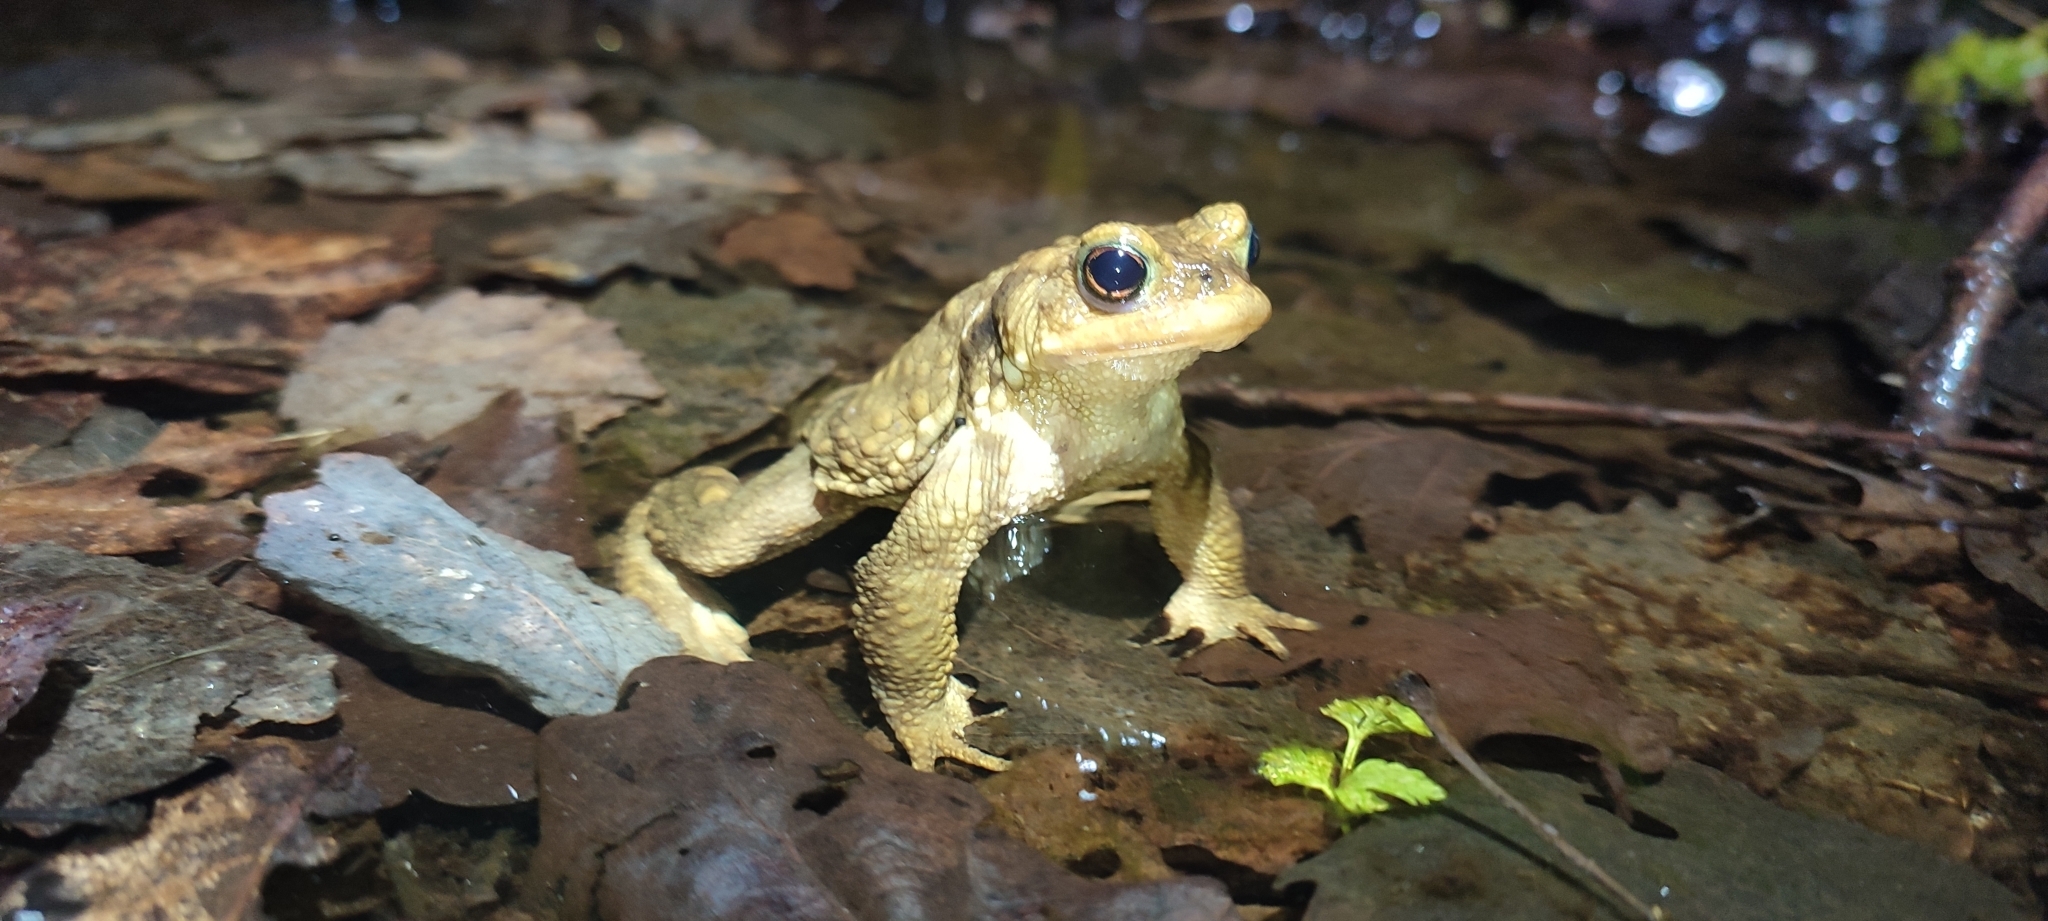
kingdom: Animalia
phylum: Chordata
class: Amphibia
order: Anura
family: Bufonidae
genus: Bufo
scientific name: Bufo spinosus
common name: Western common toad
